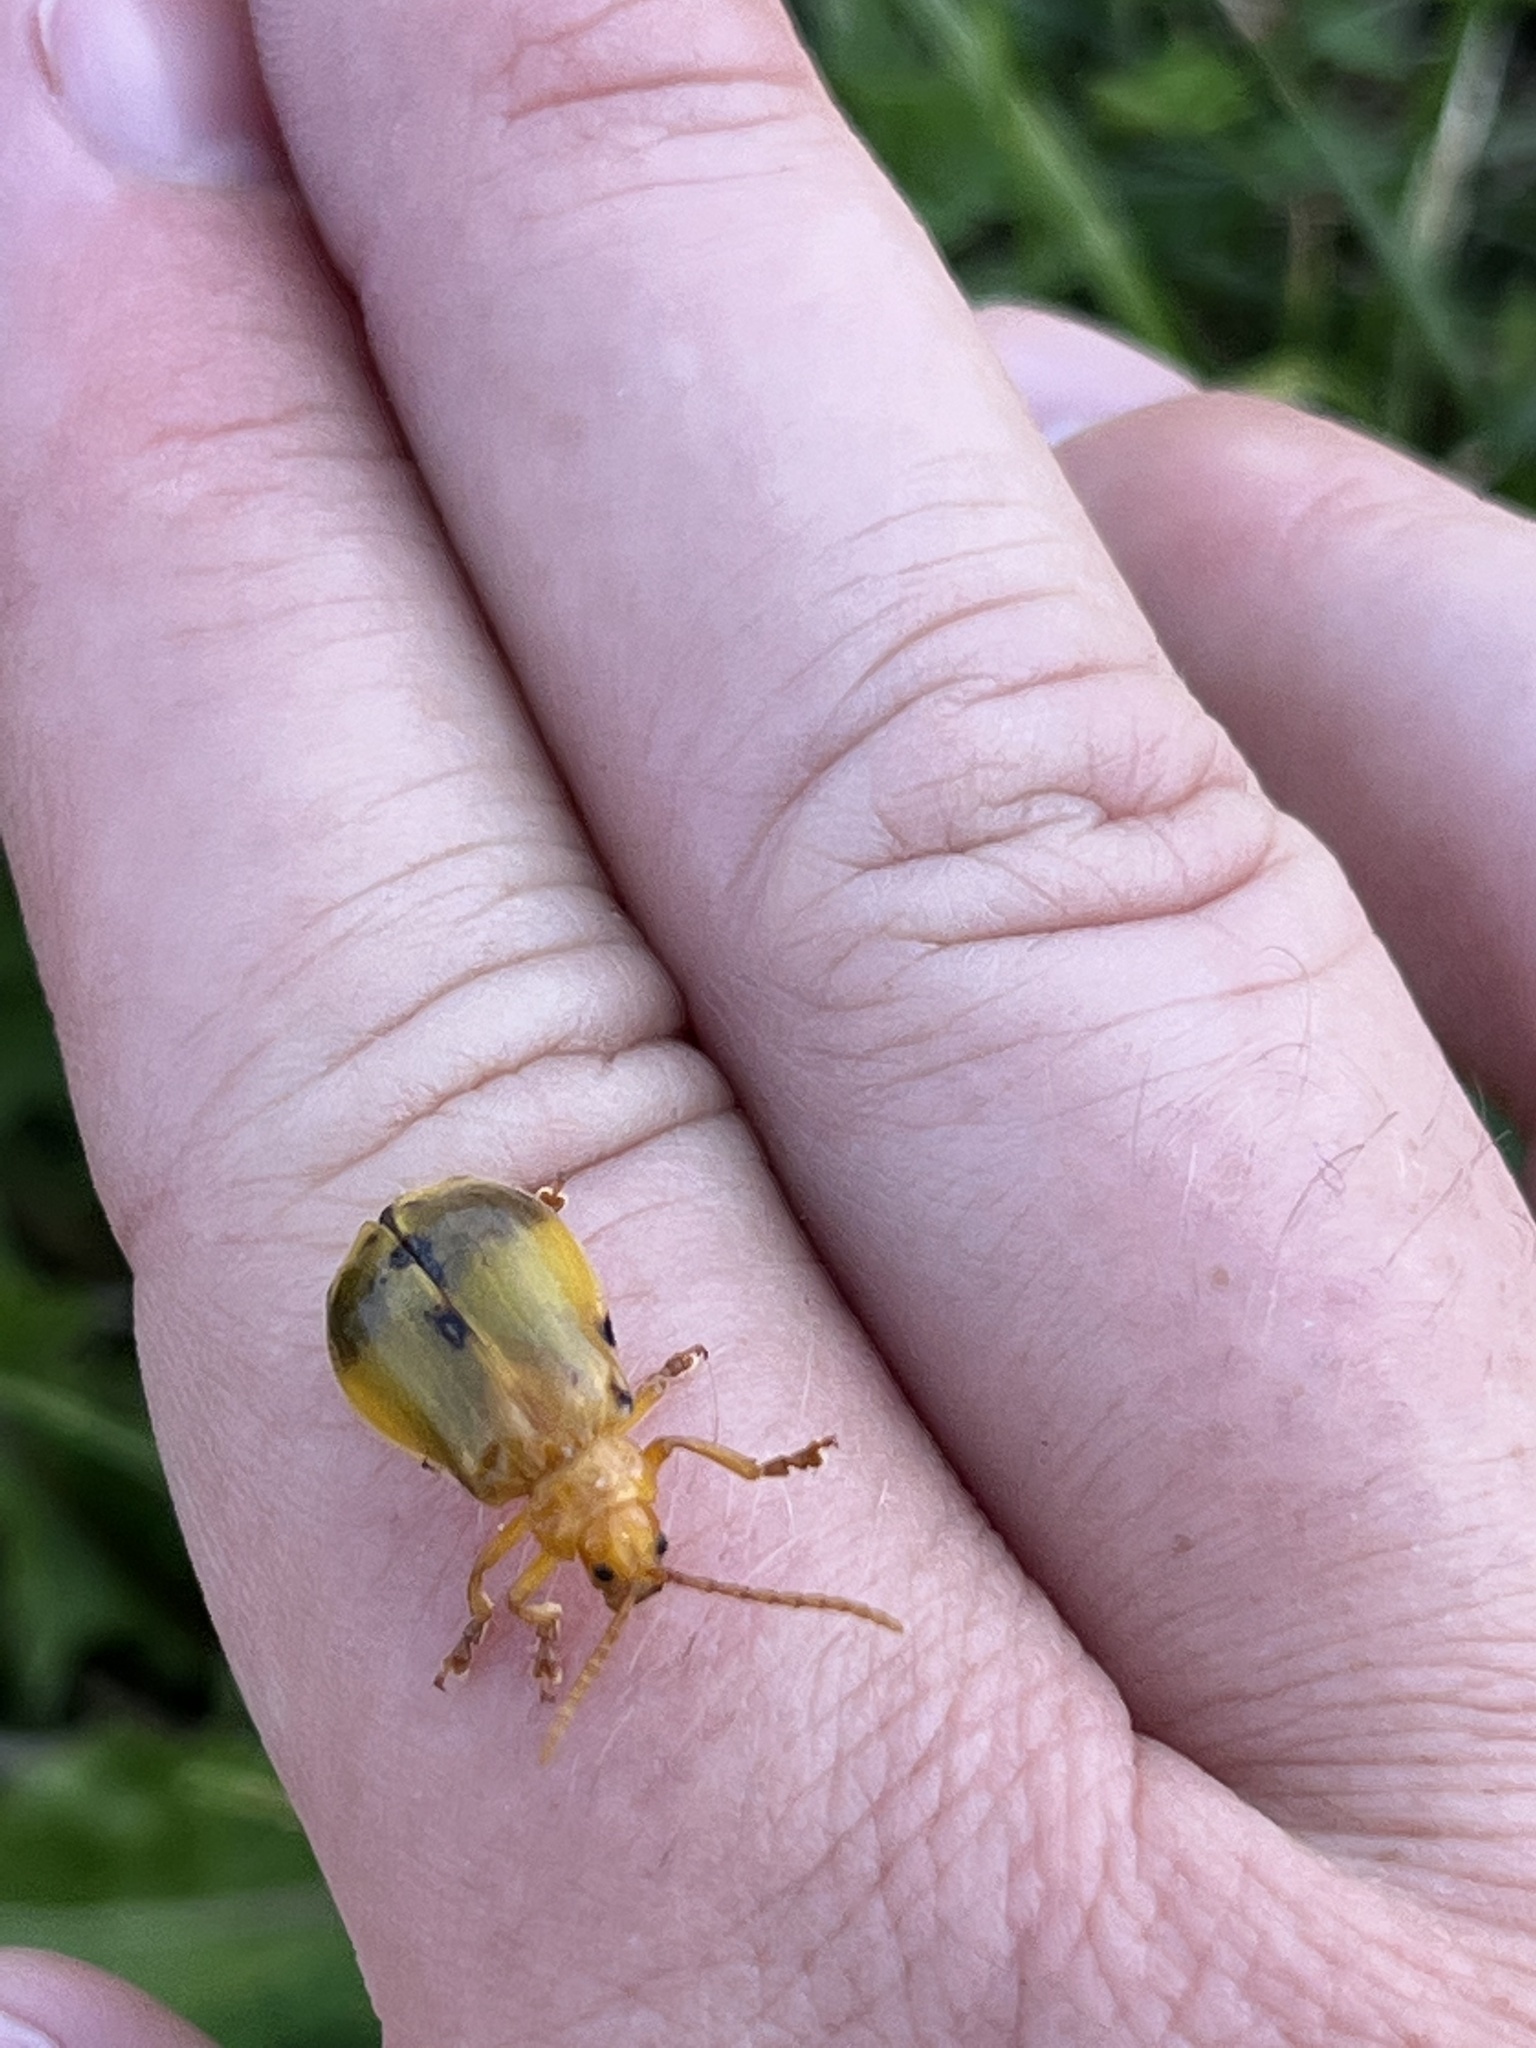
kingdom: Animalia
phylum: Arthropoda
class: Insecta
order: Coleoptera
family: Chrysomelidae
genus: Monocesta
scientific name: Monocesta coryli
